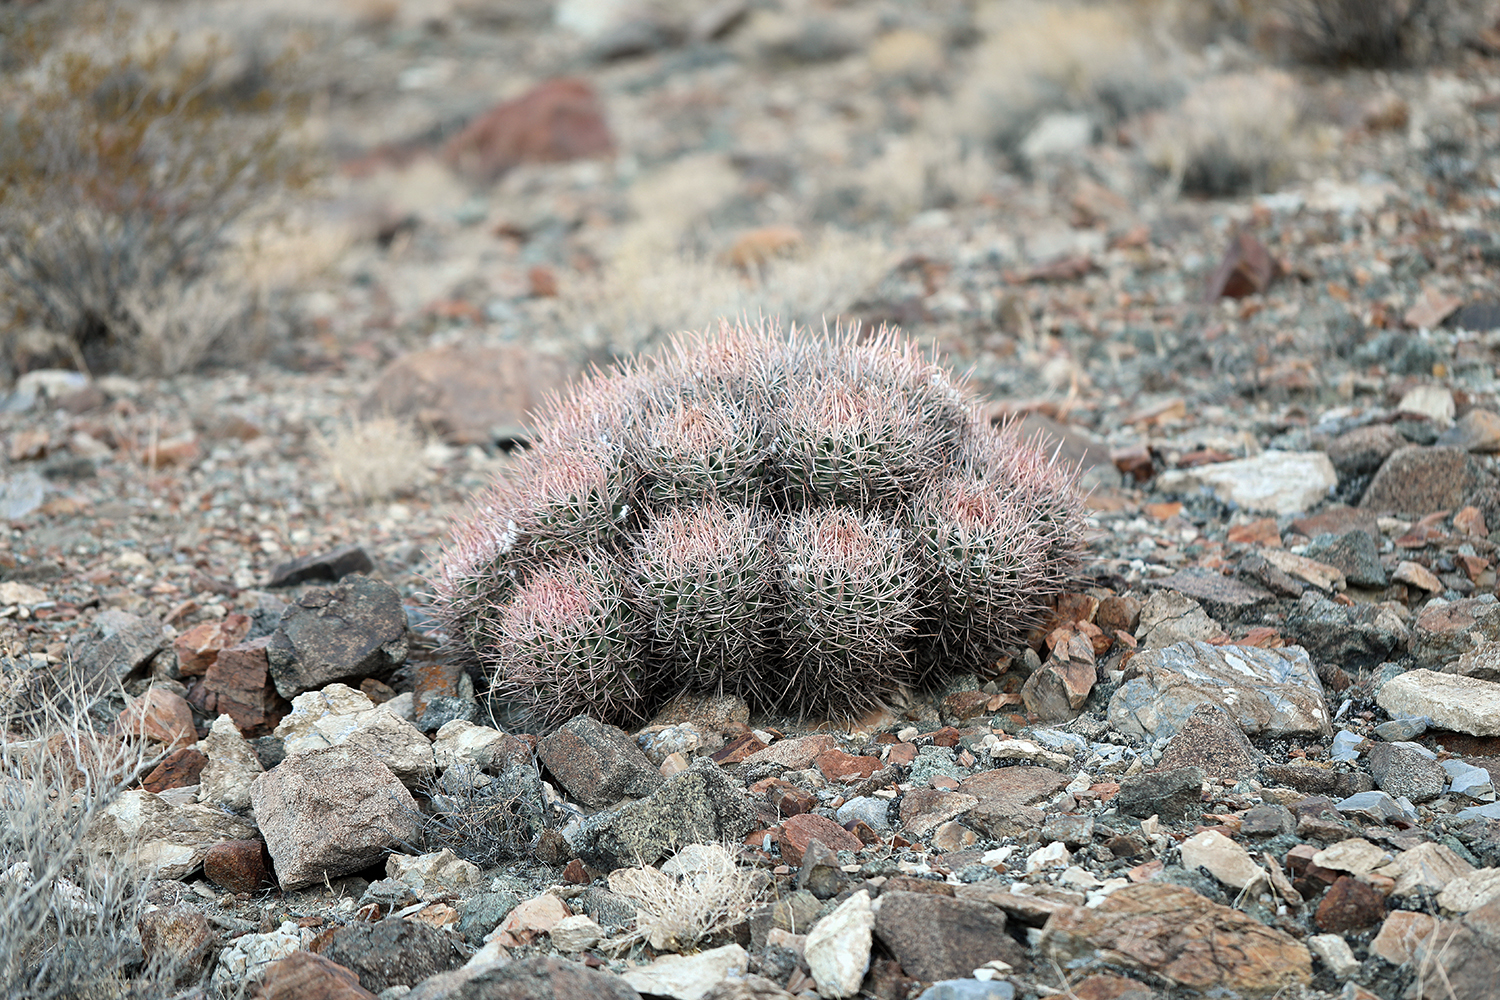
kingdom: Plantae
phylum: Tracheophyta
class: Magnoliopsida
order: Caryophyllales
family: Cactaceae
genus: Echinocactus
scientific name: Echinocactus polycephalus
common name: Cottontop cactus
